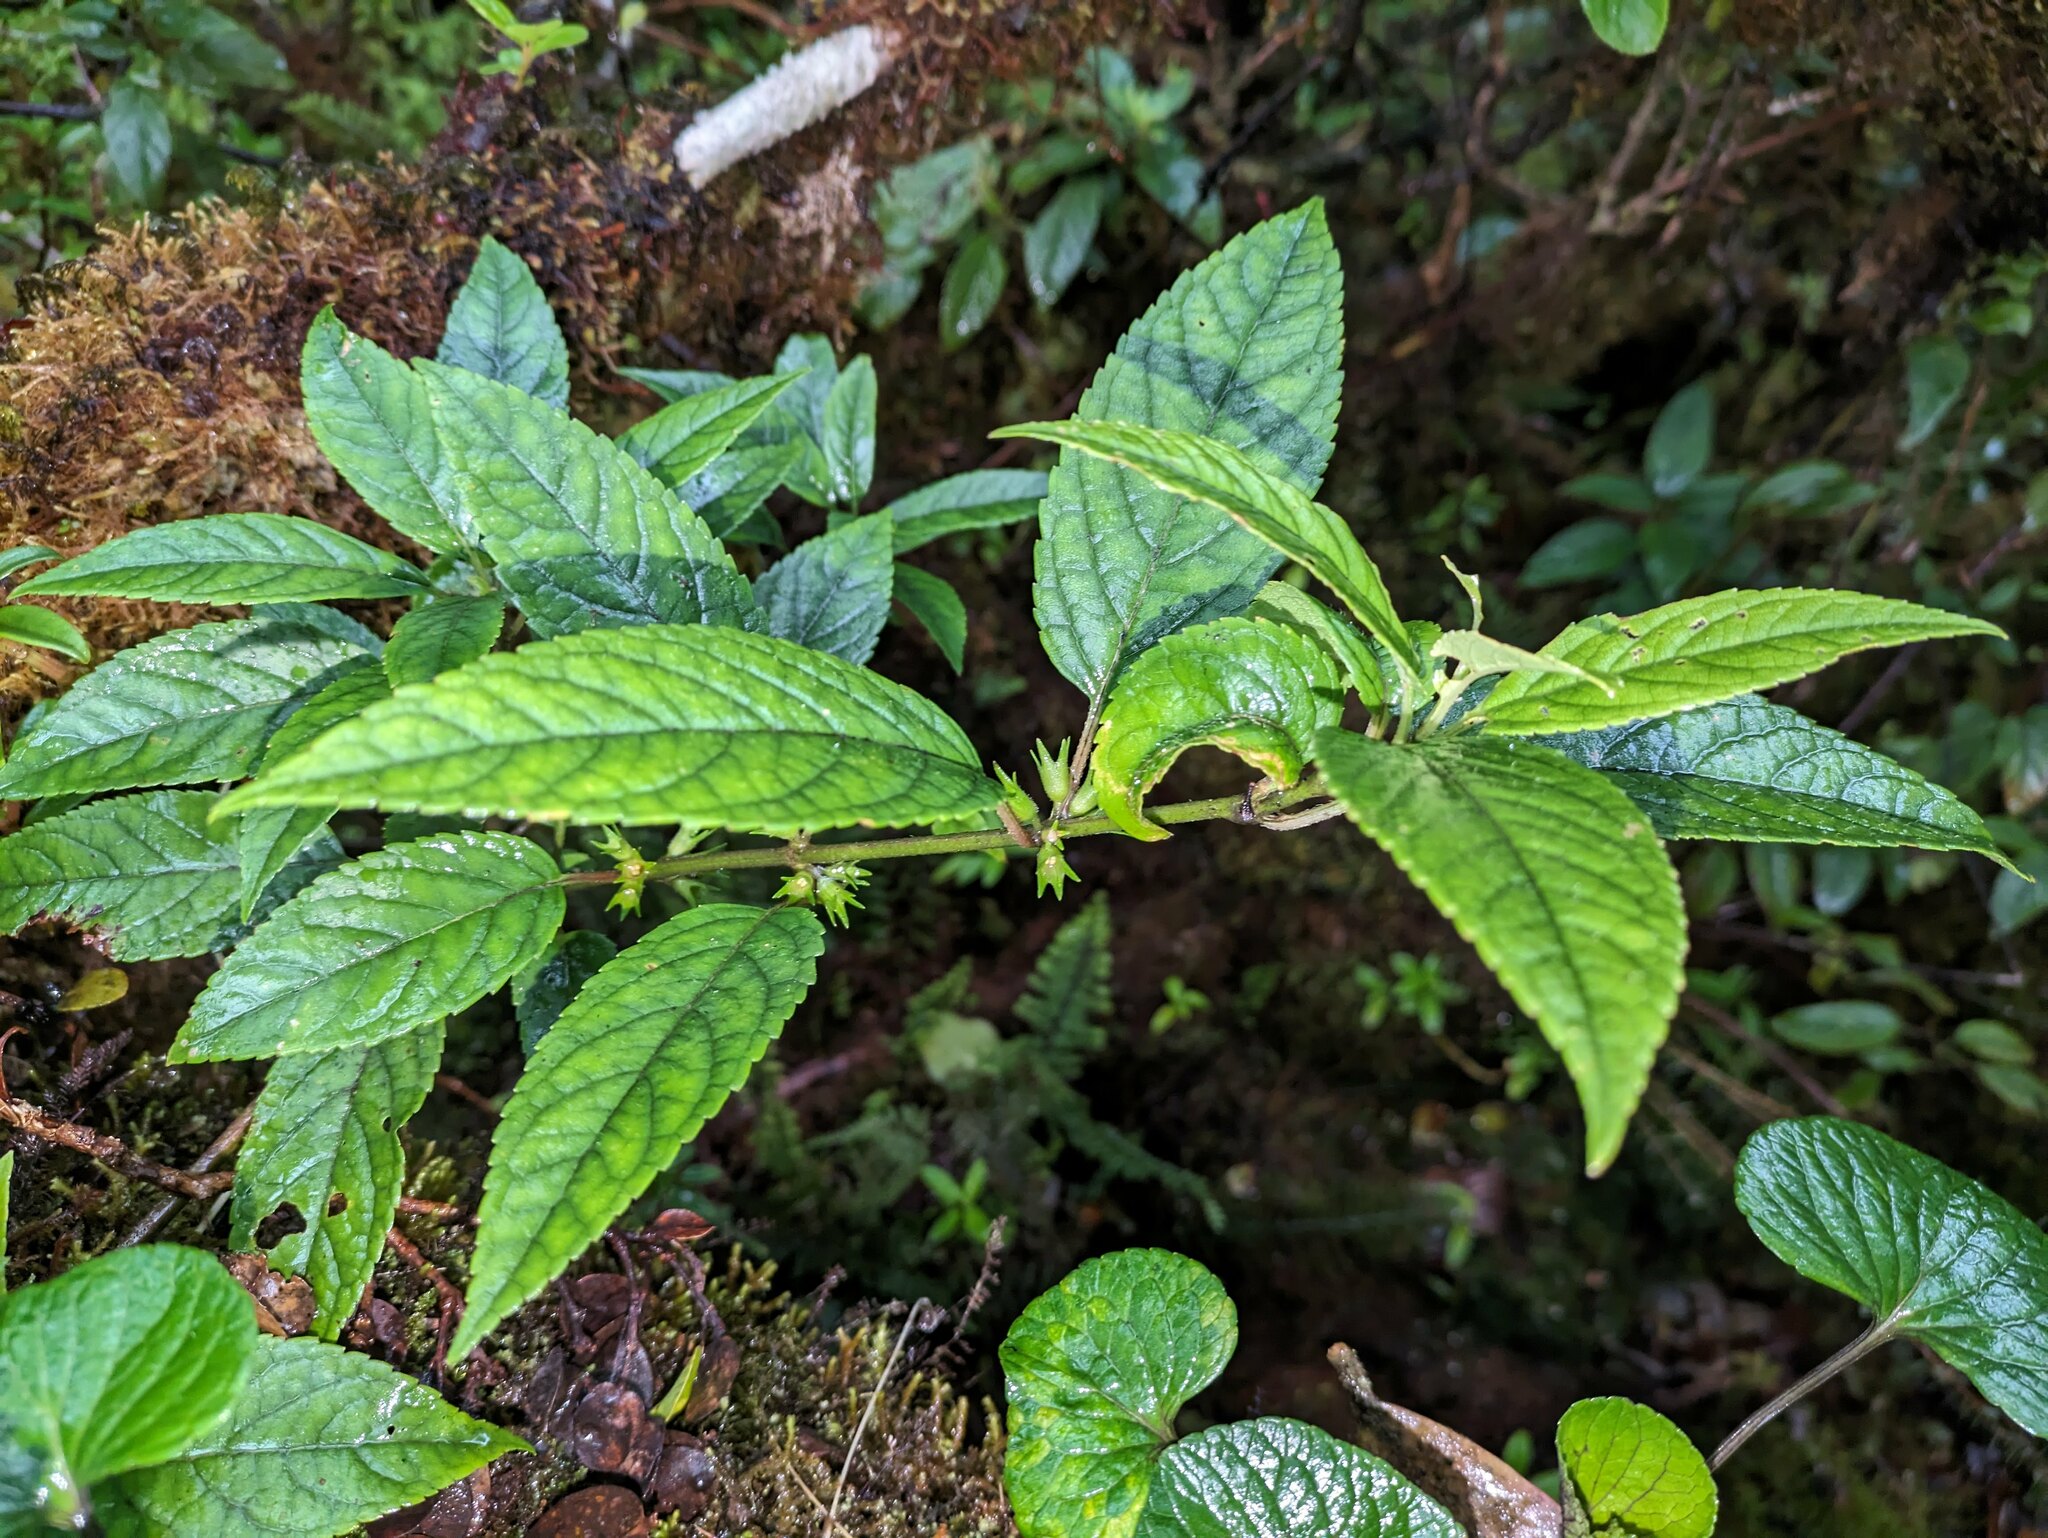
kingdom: Plantae
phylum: Tracheophyta
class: Magnoliopsida
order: Lamiales
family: Lamiaceae
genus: Stenogyne
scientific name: Stenogyne purpurea
